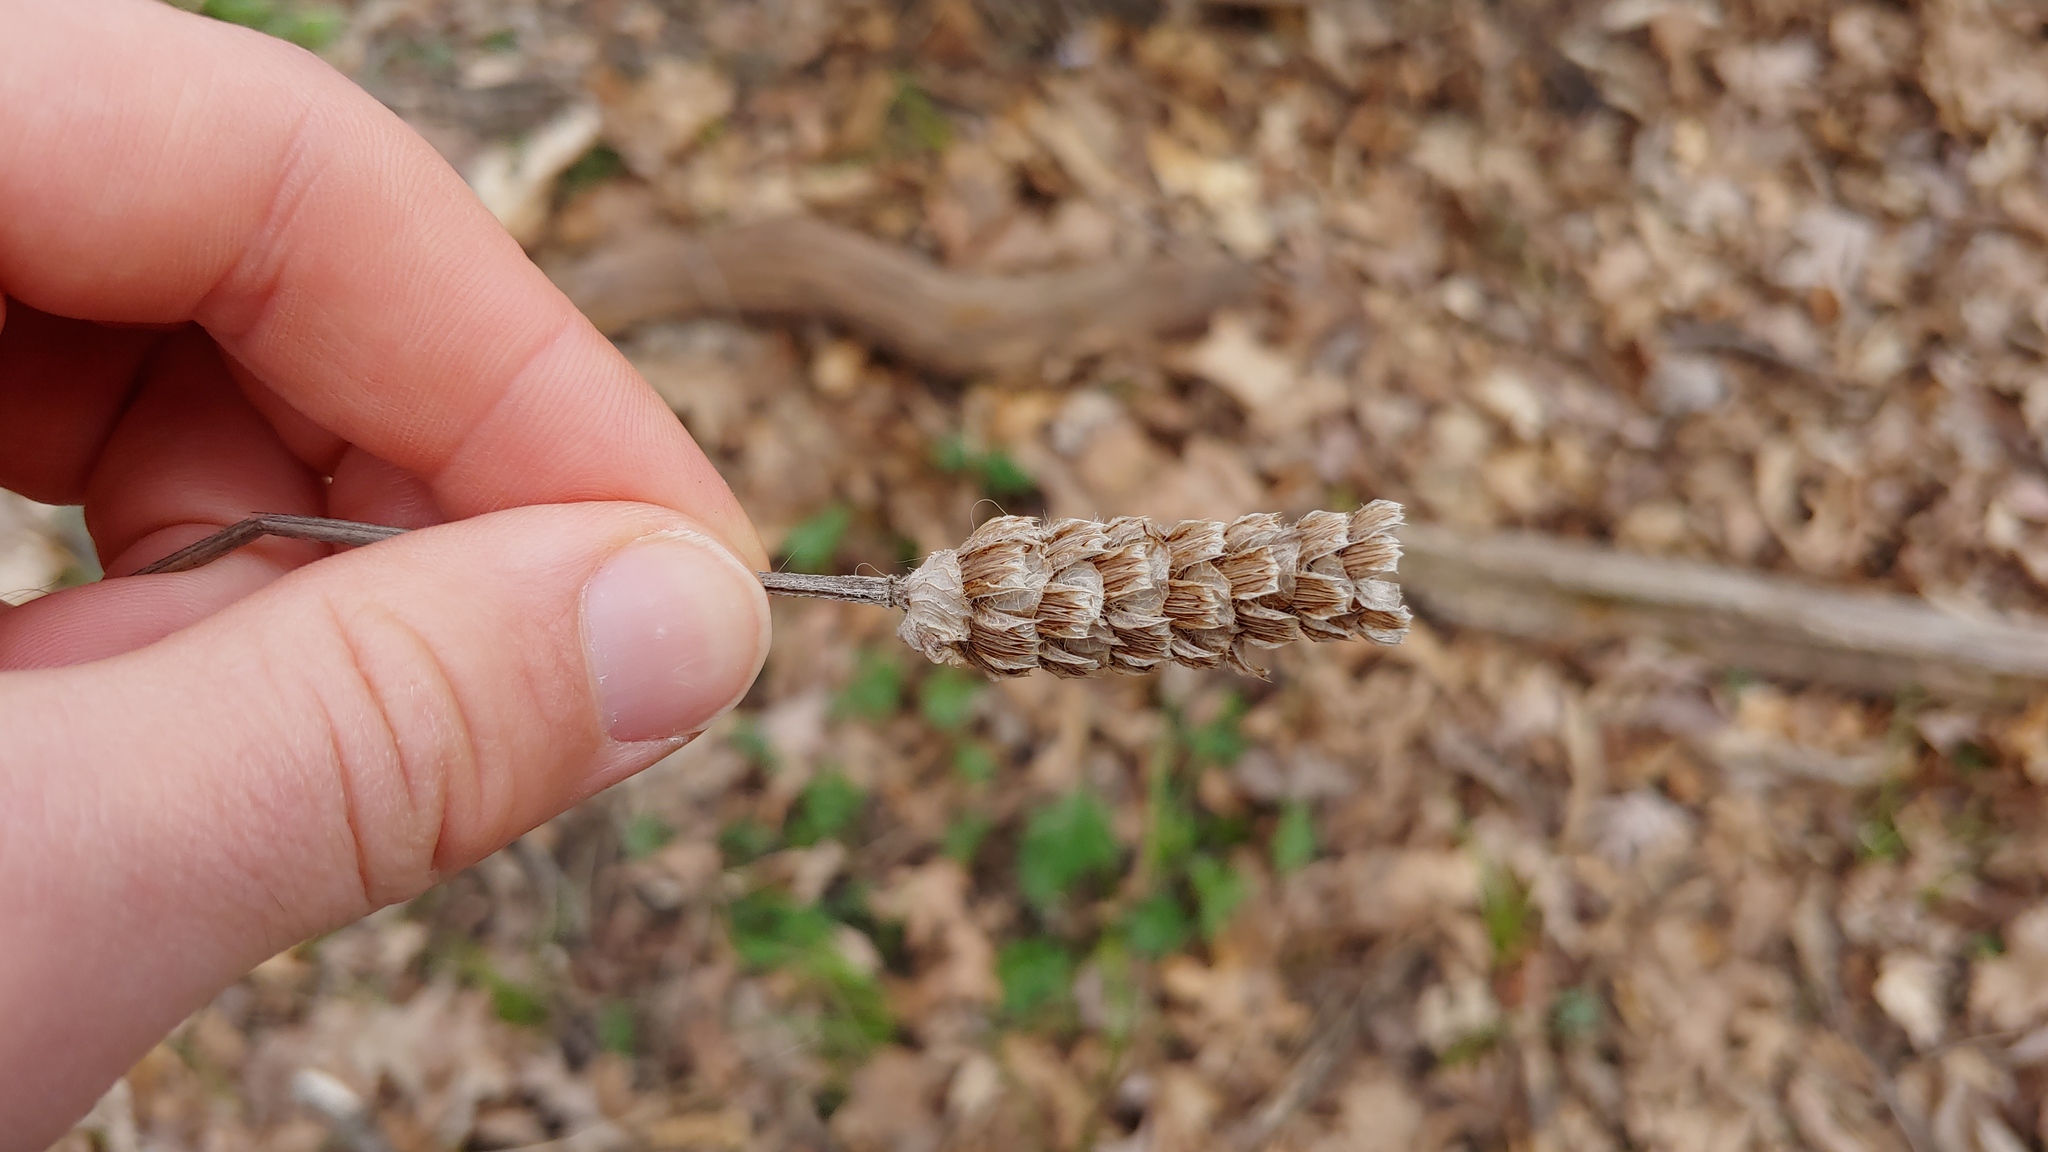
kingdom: Plantae
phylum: Tracheophyta
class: Magnoliopsida
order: Lamiales
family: Lamiaceae
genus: Prunella
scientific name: Prunella vulgaris
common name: Heal-all
